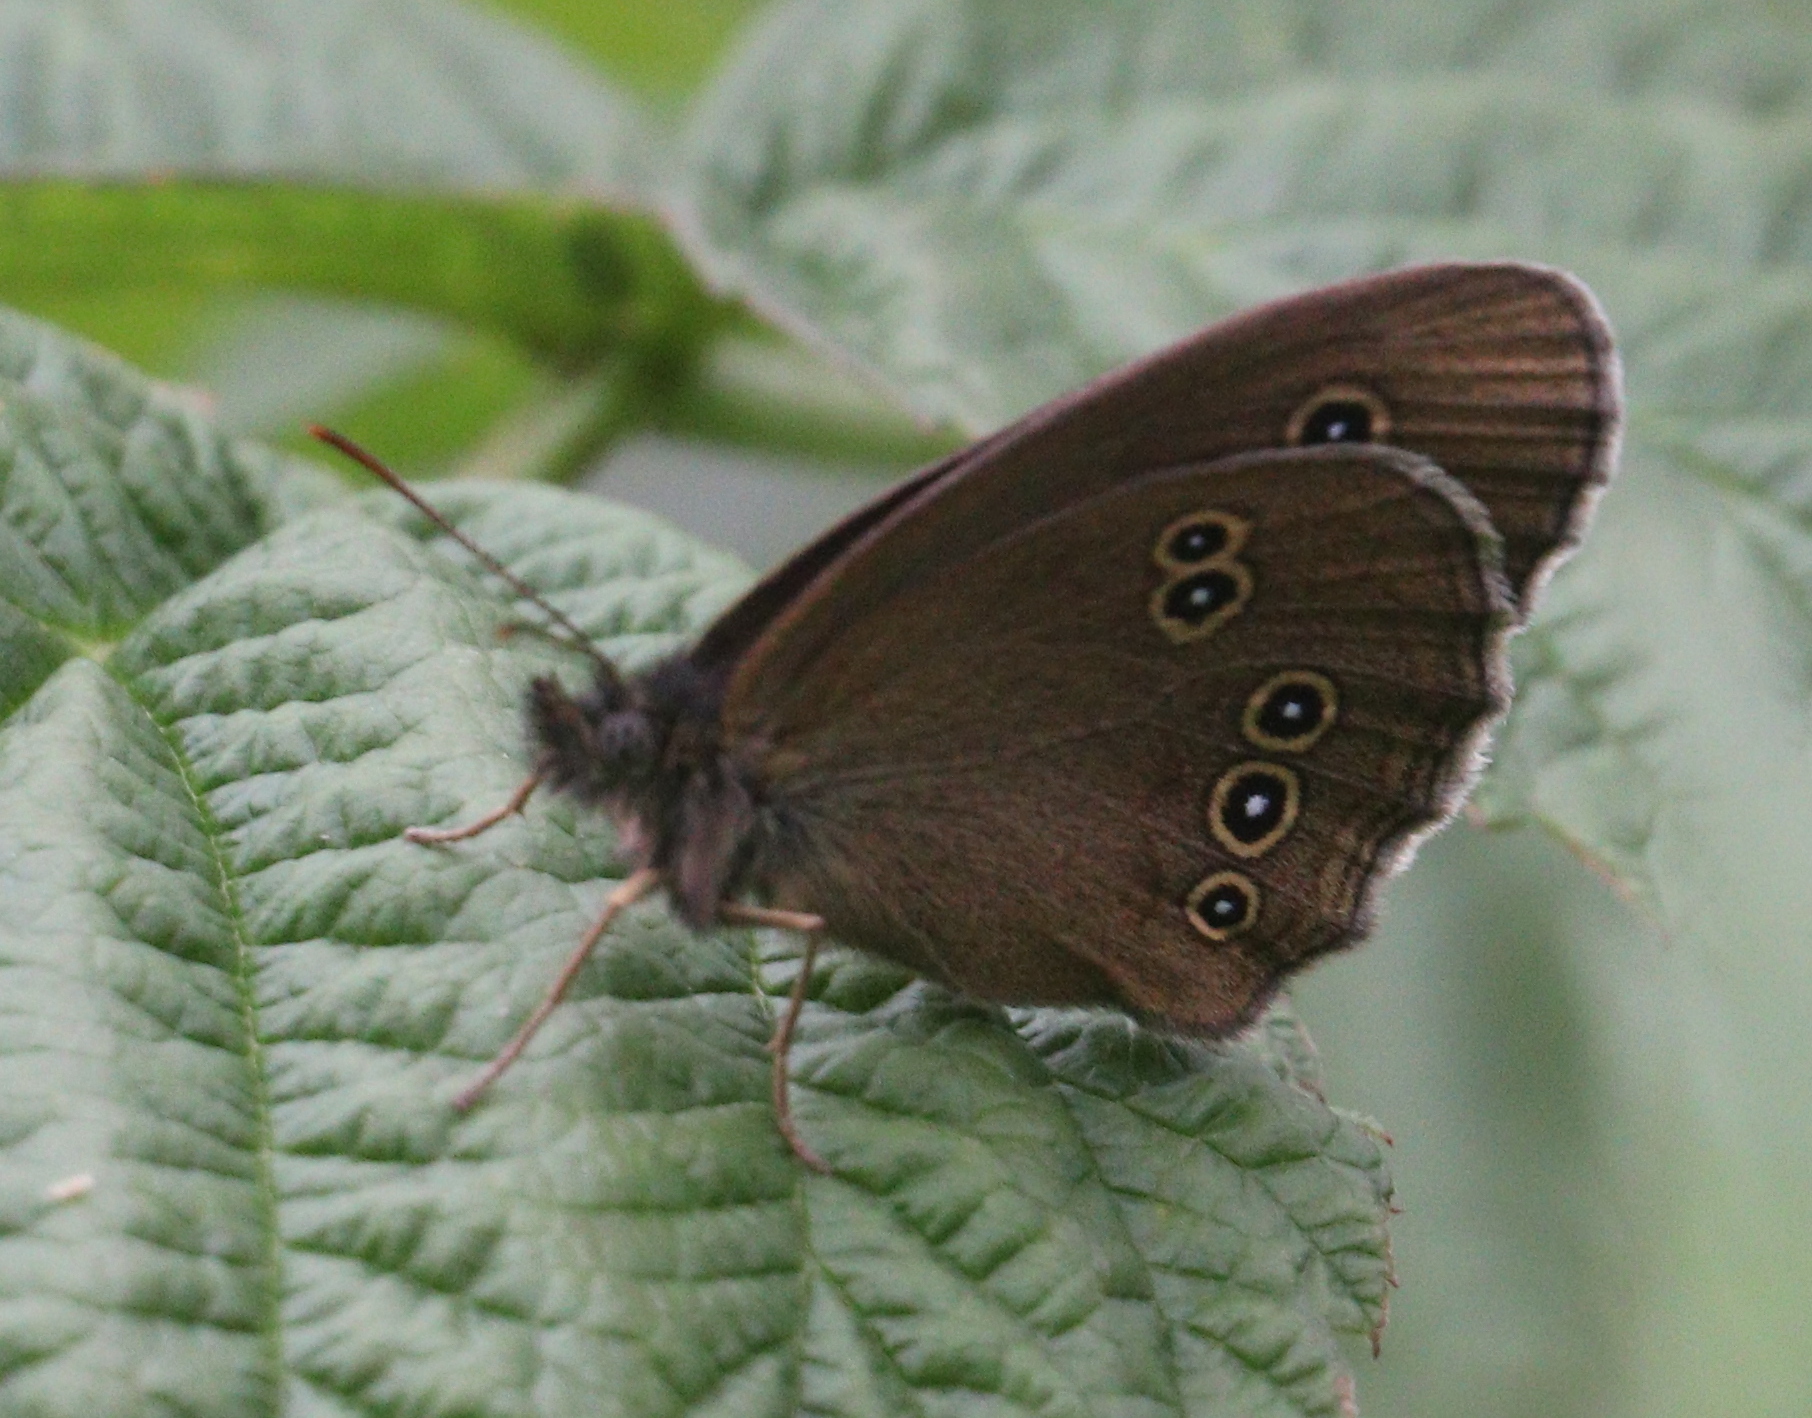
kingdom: Animalia
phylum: Arthropoda
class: Insecta
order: Lepidoptera
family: Nymphalidae
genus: Aphantopus
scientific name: Aphantopus hyperantus
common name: Ringlet
